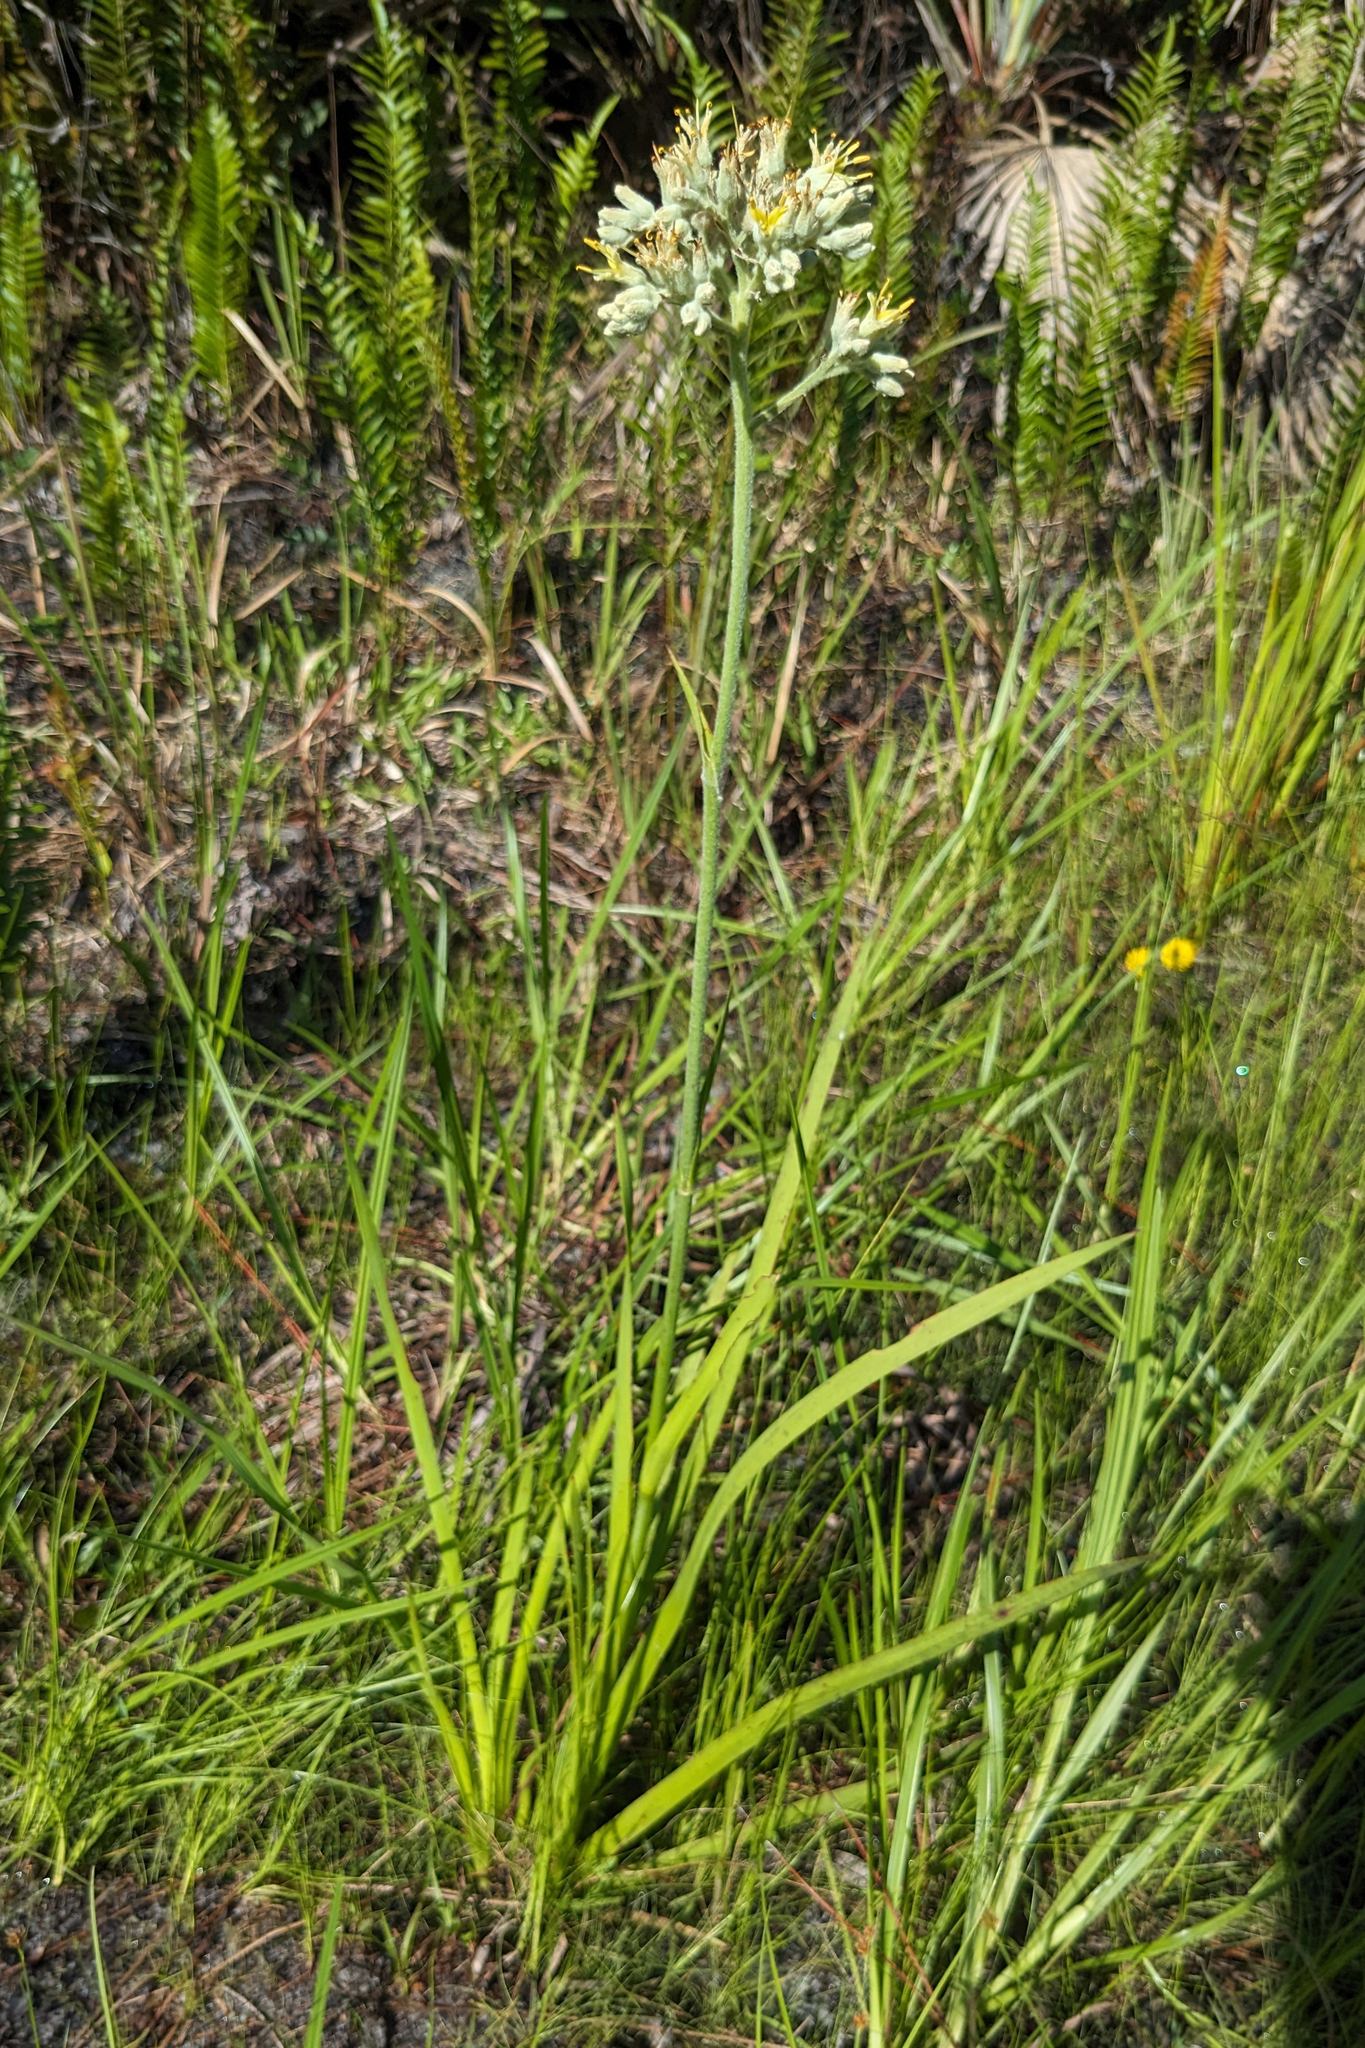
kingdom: Plantae
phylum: Tracheophyta
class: Liliopsida
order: Commelinales
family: Haemodoraceae
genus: Lachnanthes
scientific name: Lachnanthes caroliana
